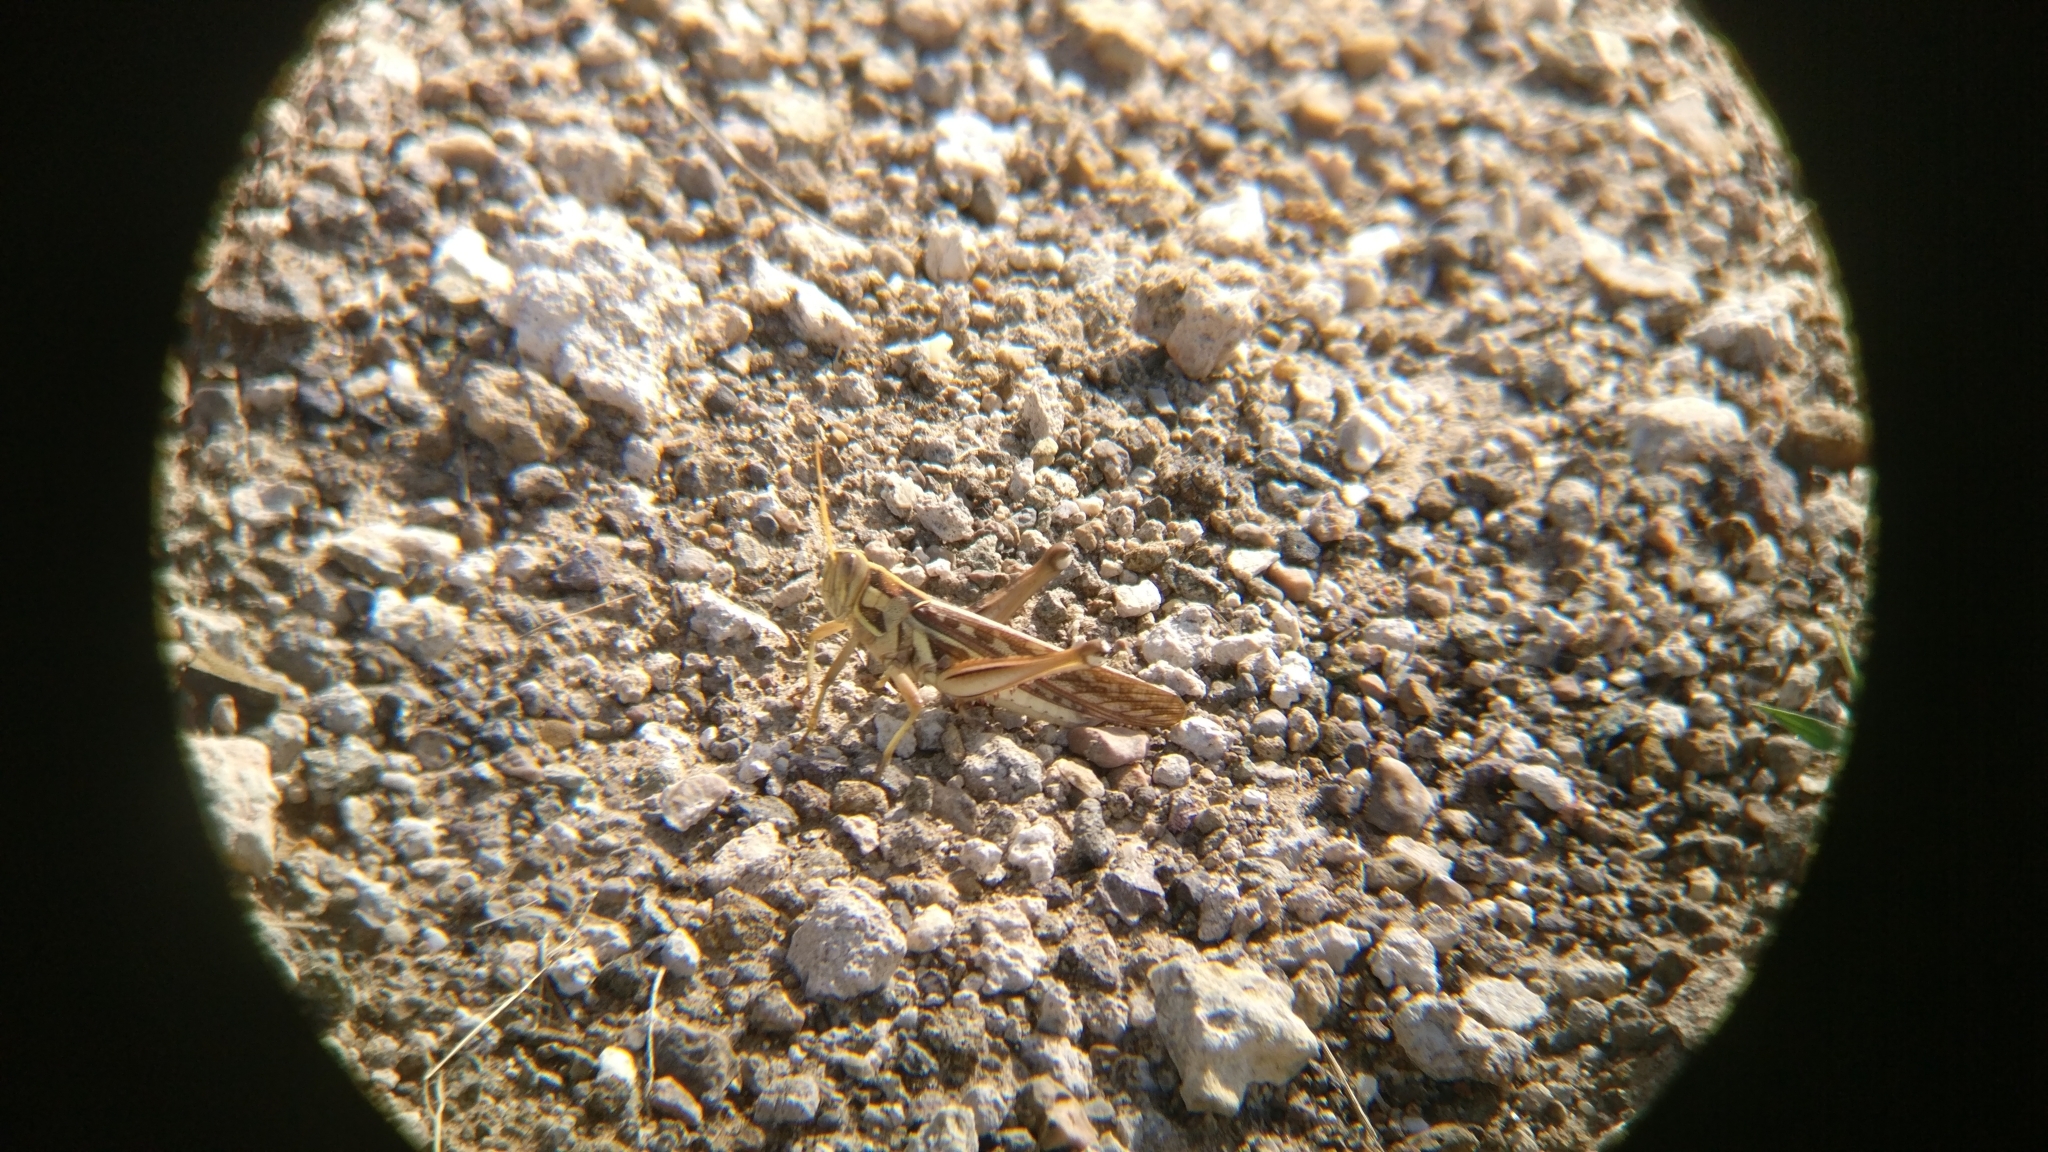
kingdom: Animalia
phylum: Arthropoda
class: Insecta
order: Orthoptera
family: Acrididae
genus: Cyrtacanthacris
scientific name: Cyrtacanthacris tatarica
